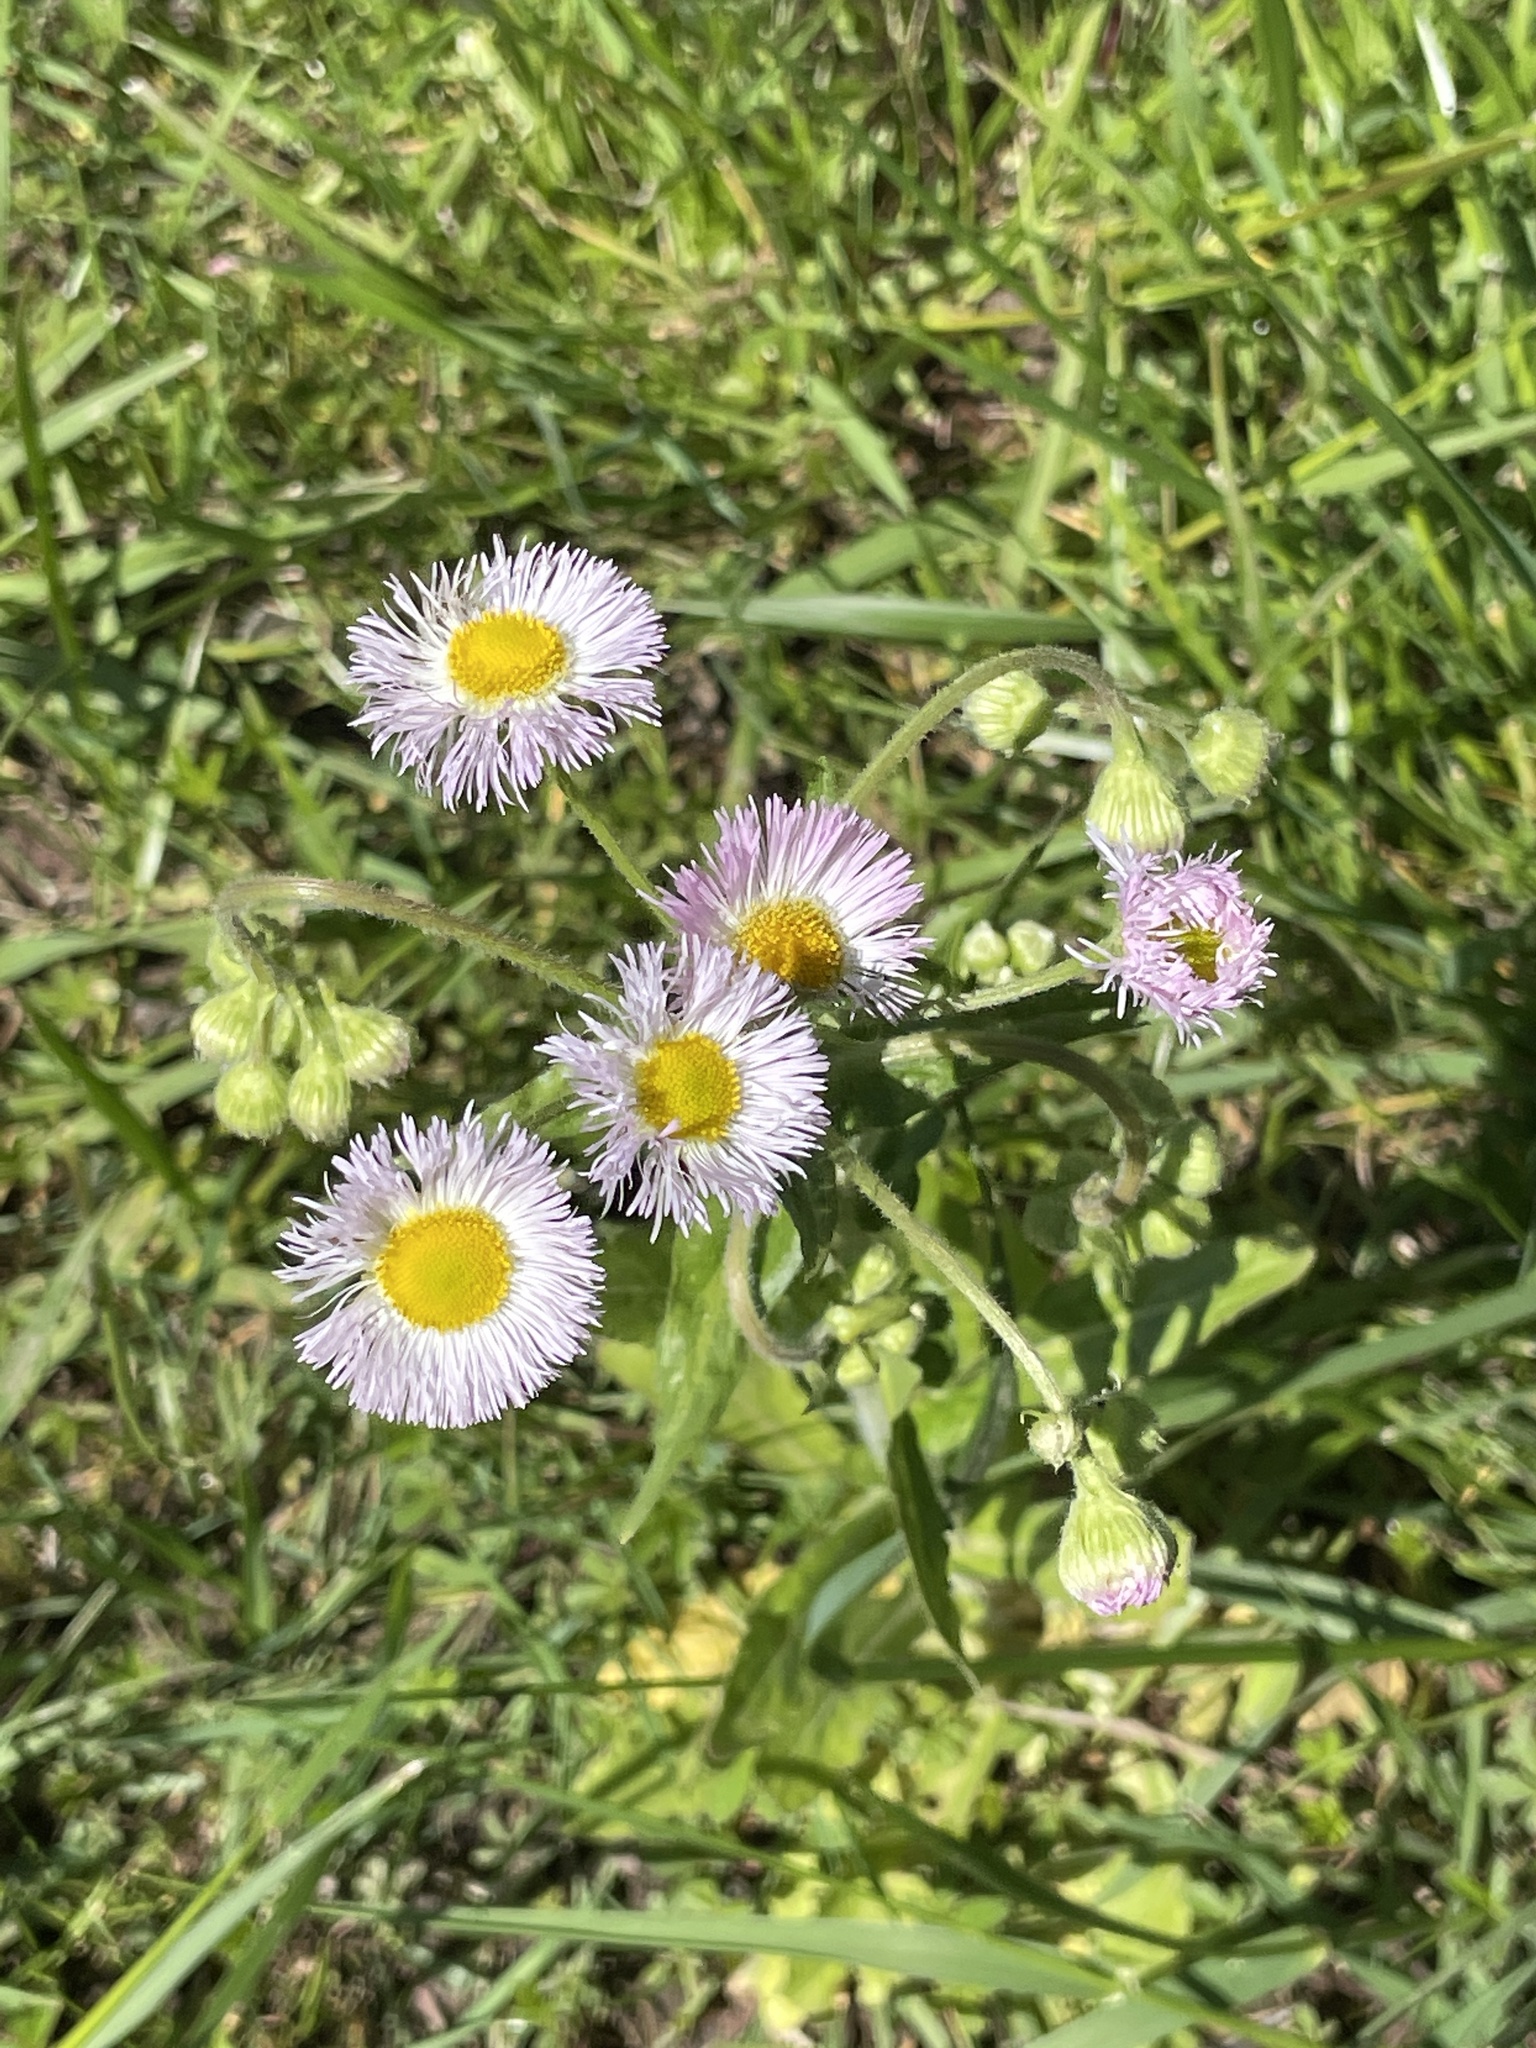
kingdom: Plantae
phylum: Tracheophyta
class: Magnoliopsida
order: Asterales
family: Asteraceae
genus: Erigeron
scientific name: Erigeron philadelphicus
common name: Robin's-plantain
